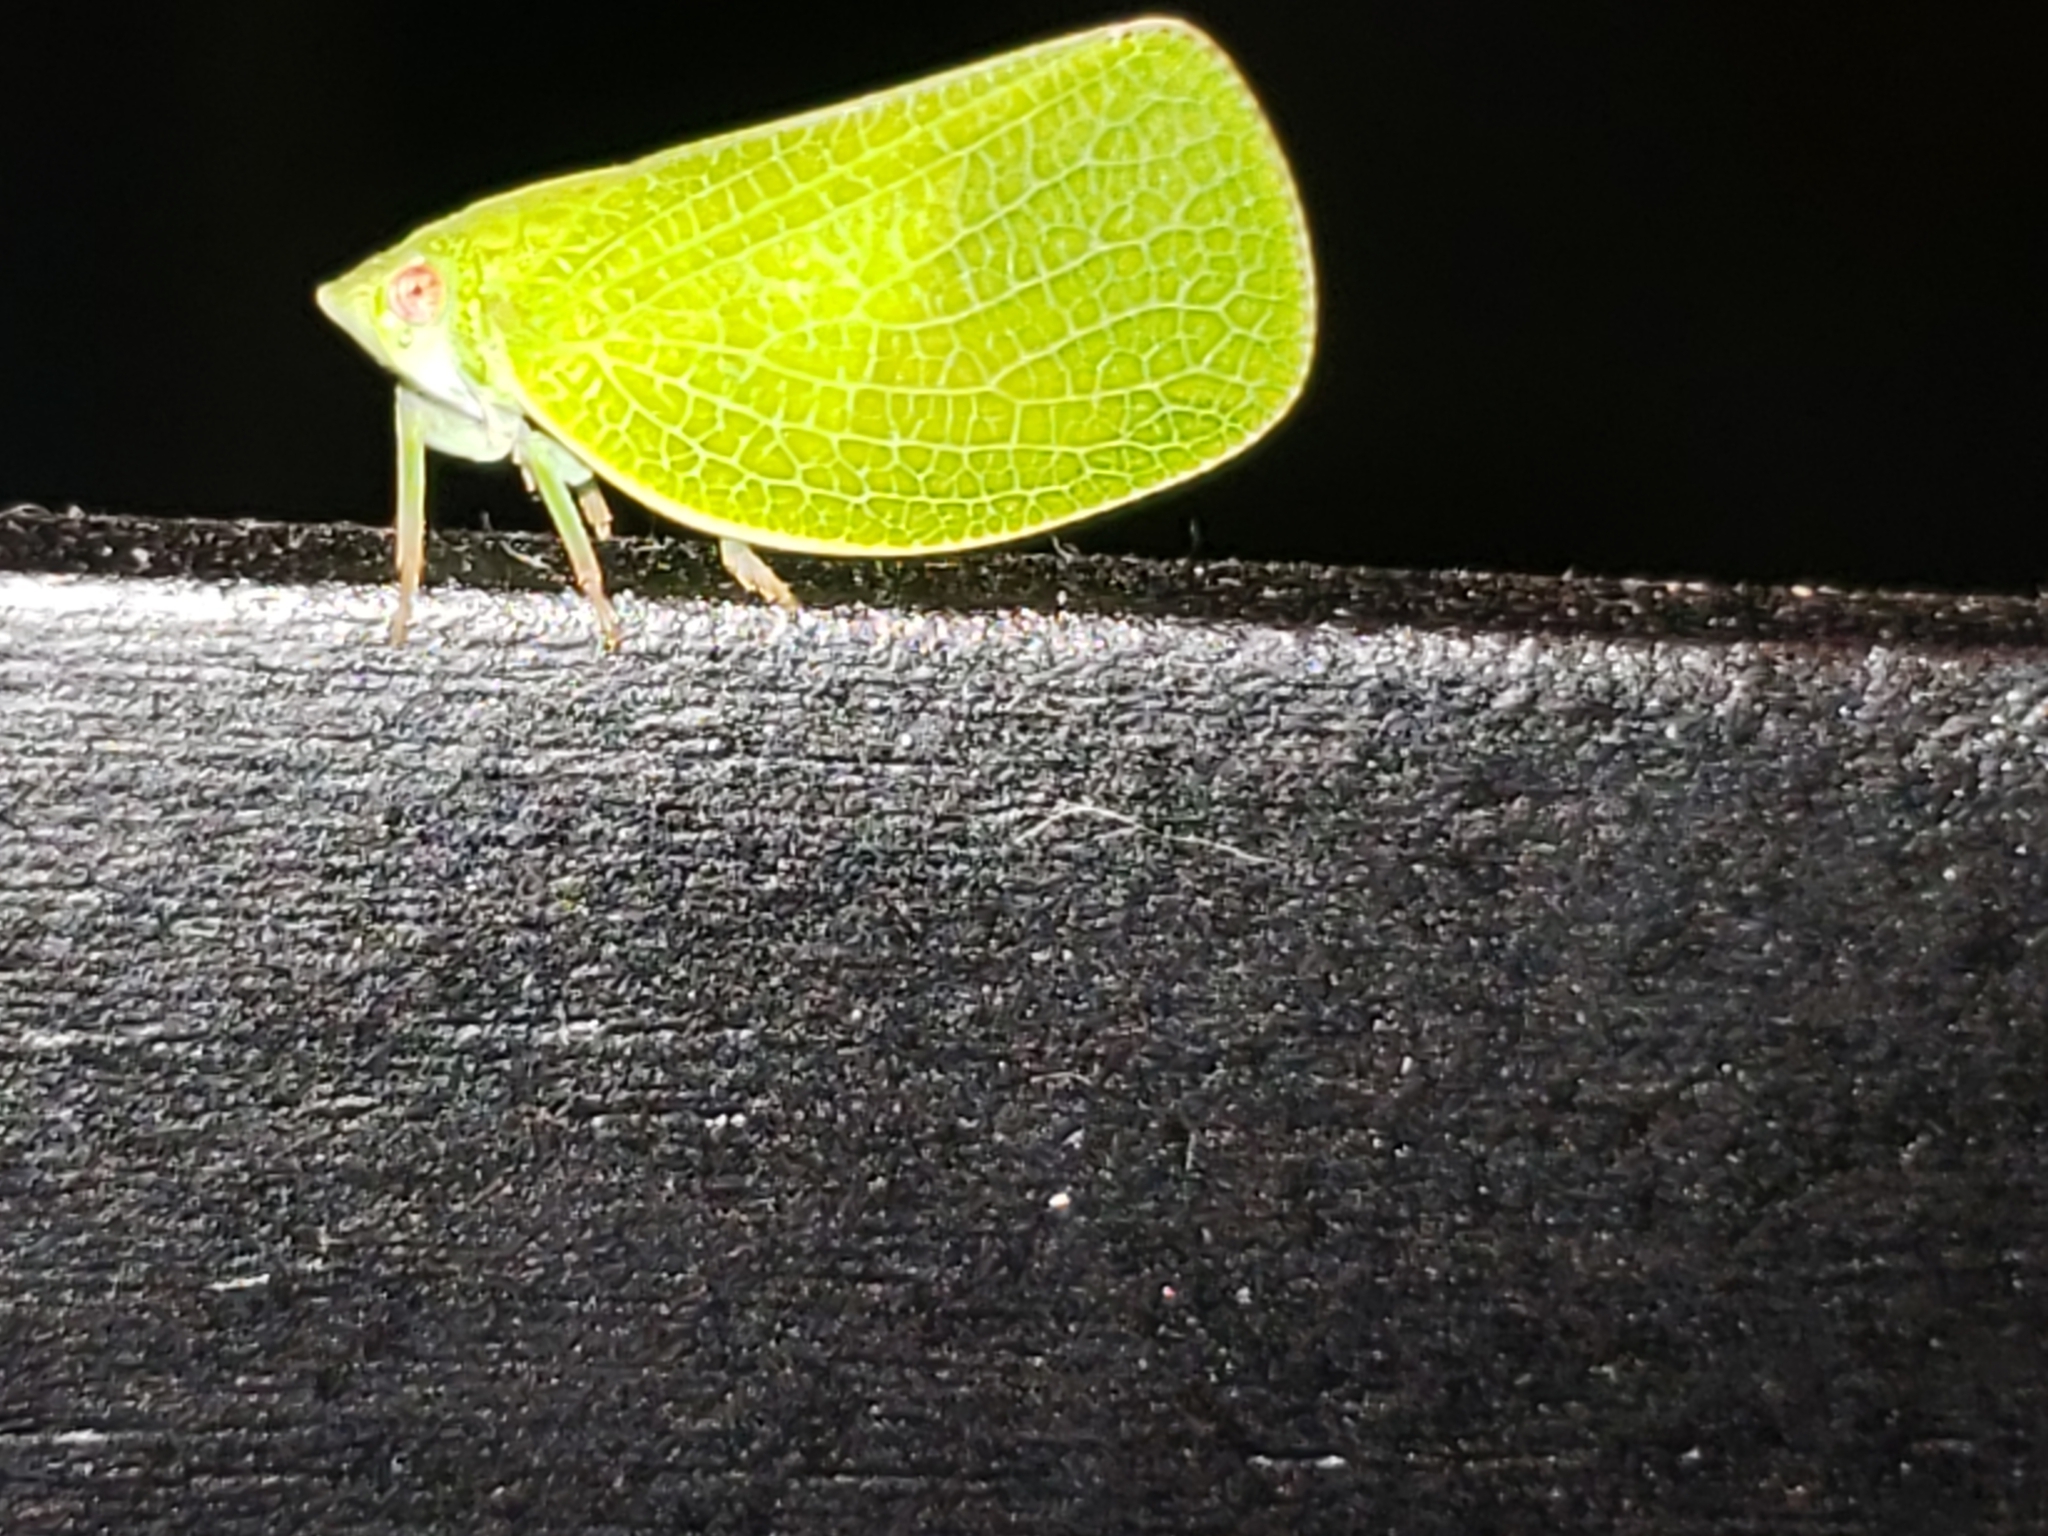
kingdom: Animalia
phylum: Arthropoda
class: Insecta
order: Hemiptera
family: Acanaloniidae
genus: Acanalonia
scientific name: Acanalonia conica
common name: Green cone-headed planthopper
